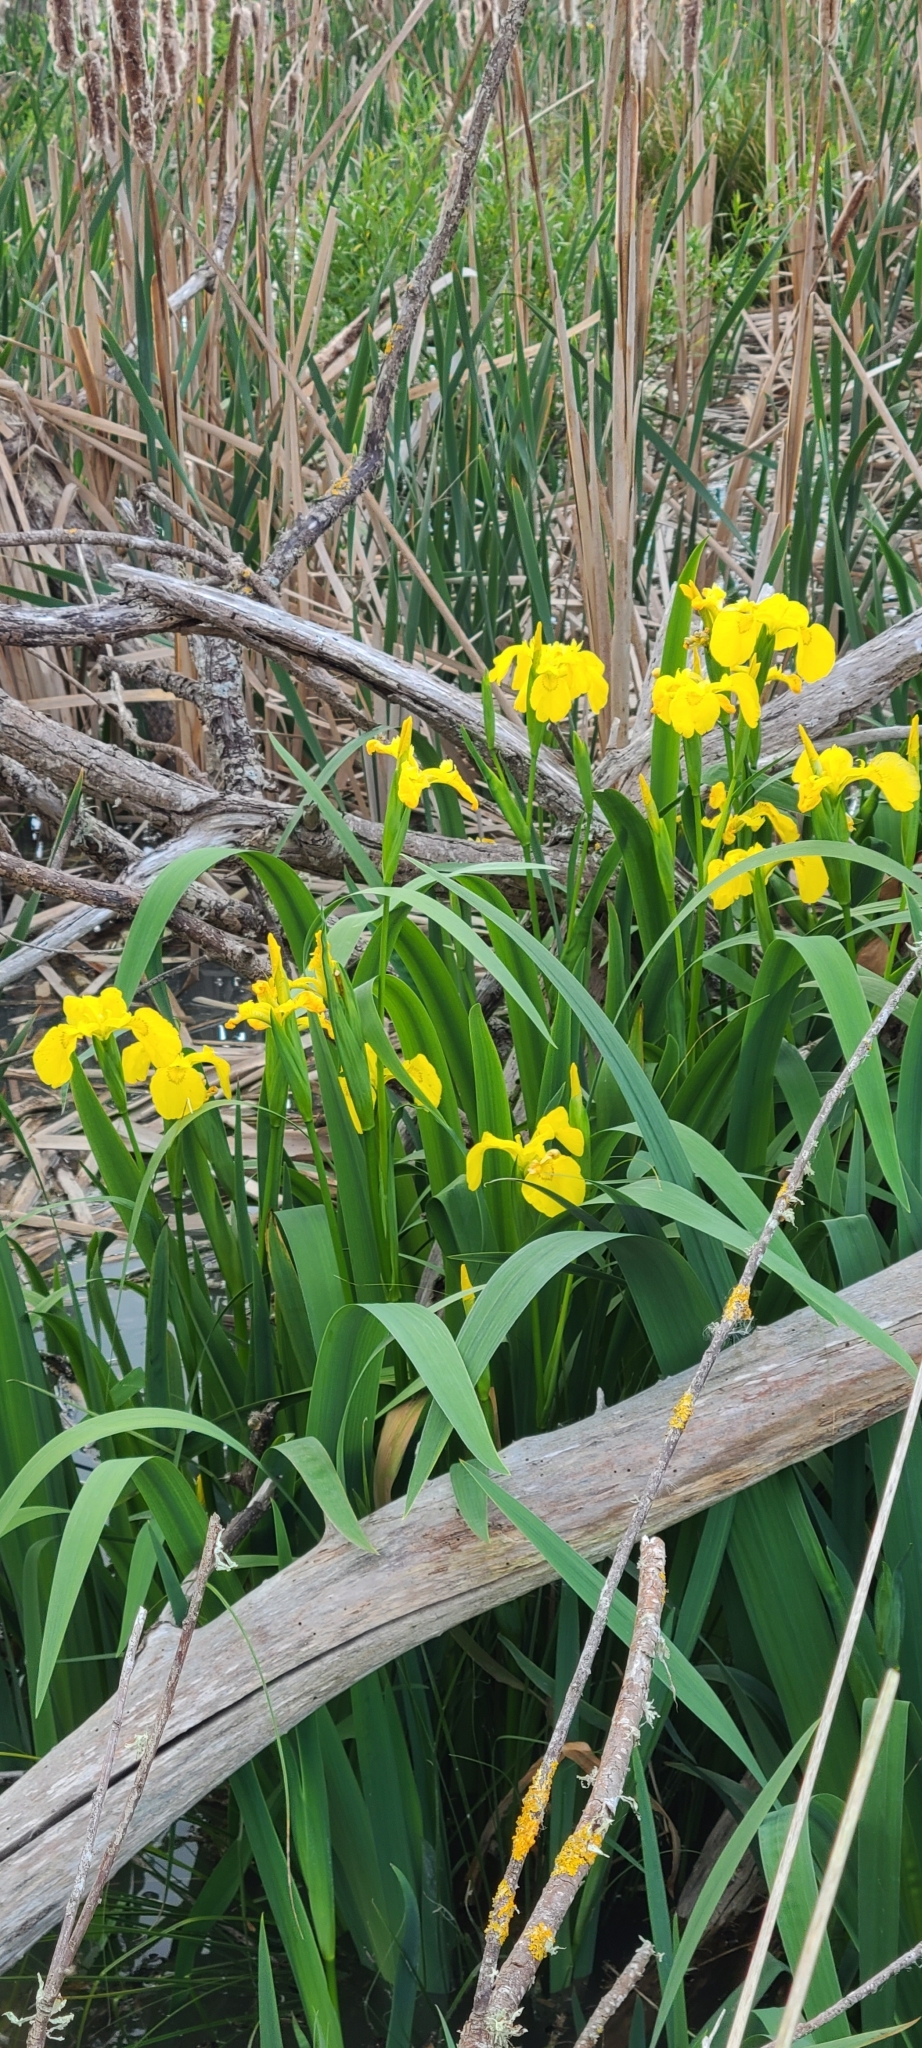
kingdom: Plantae
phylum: Tracheophyta
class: Liliopsida
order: Asparagales
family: Iridaceae
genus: Iris
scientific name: Iris pseudacorus
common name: Yellow flag
